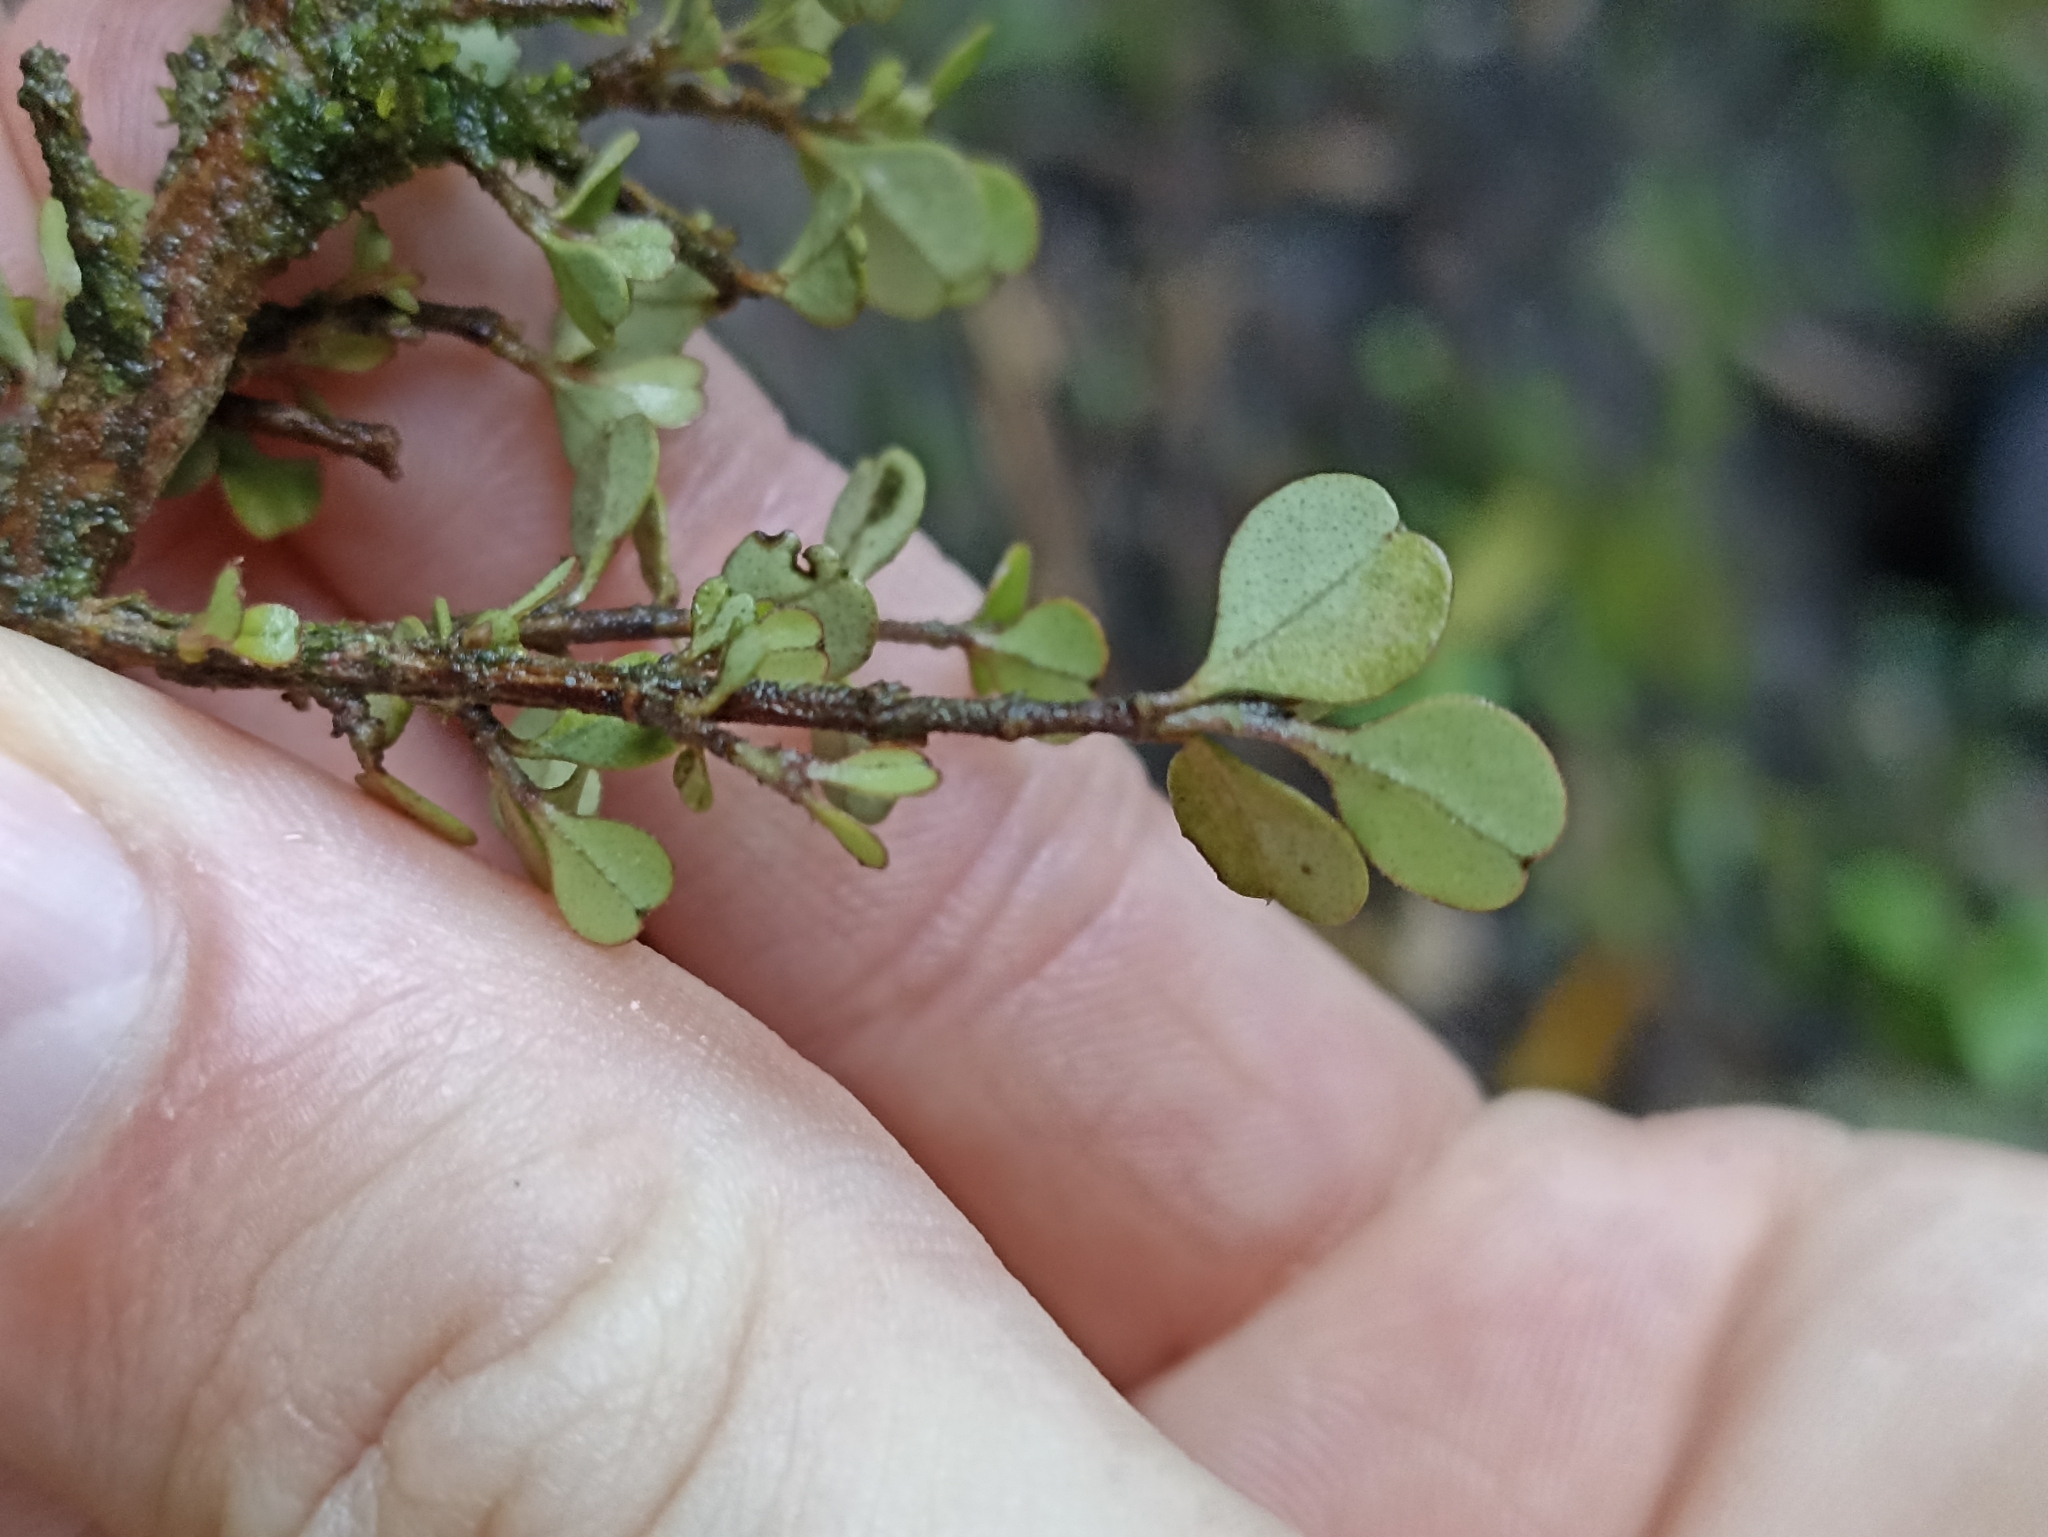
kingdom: Plantae
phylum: Tracheophyta
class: Magnoliopsida
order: Myrtales
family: Myrtaceae
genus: Lophomyrtus
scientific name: Lophomyrtus obcordata
